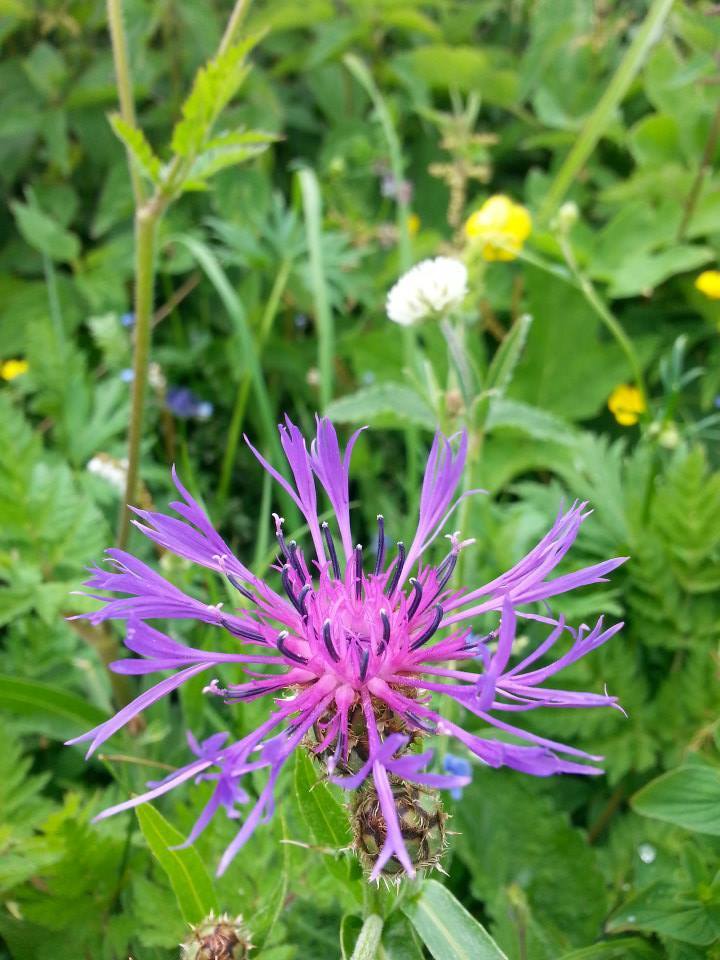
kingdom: Plantae
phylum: Tracheophyta
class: Magnoliopsida
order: Asterales
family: Asteraceae
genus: Centaurea
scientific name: Centaurea triumfettii
